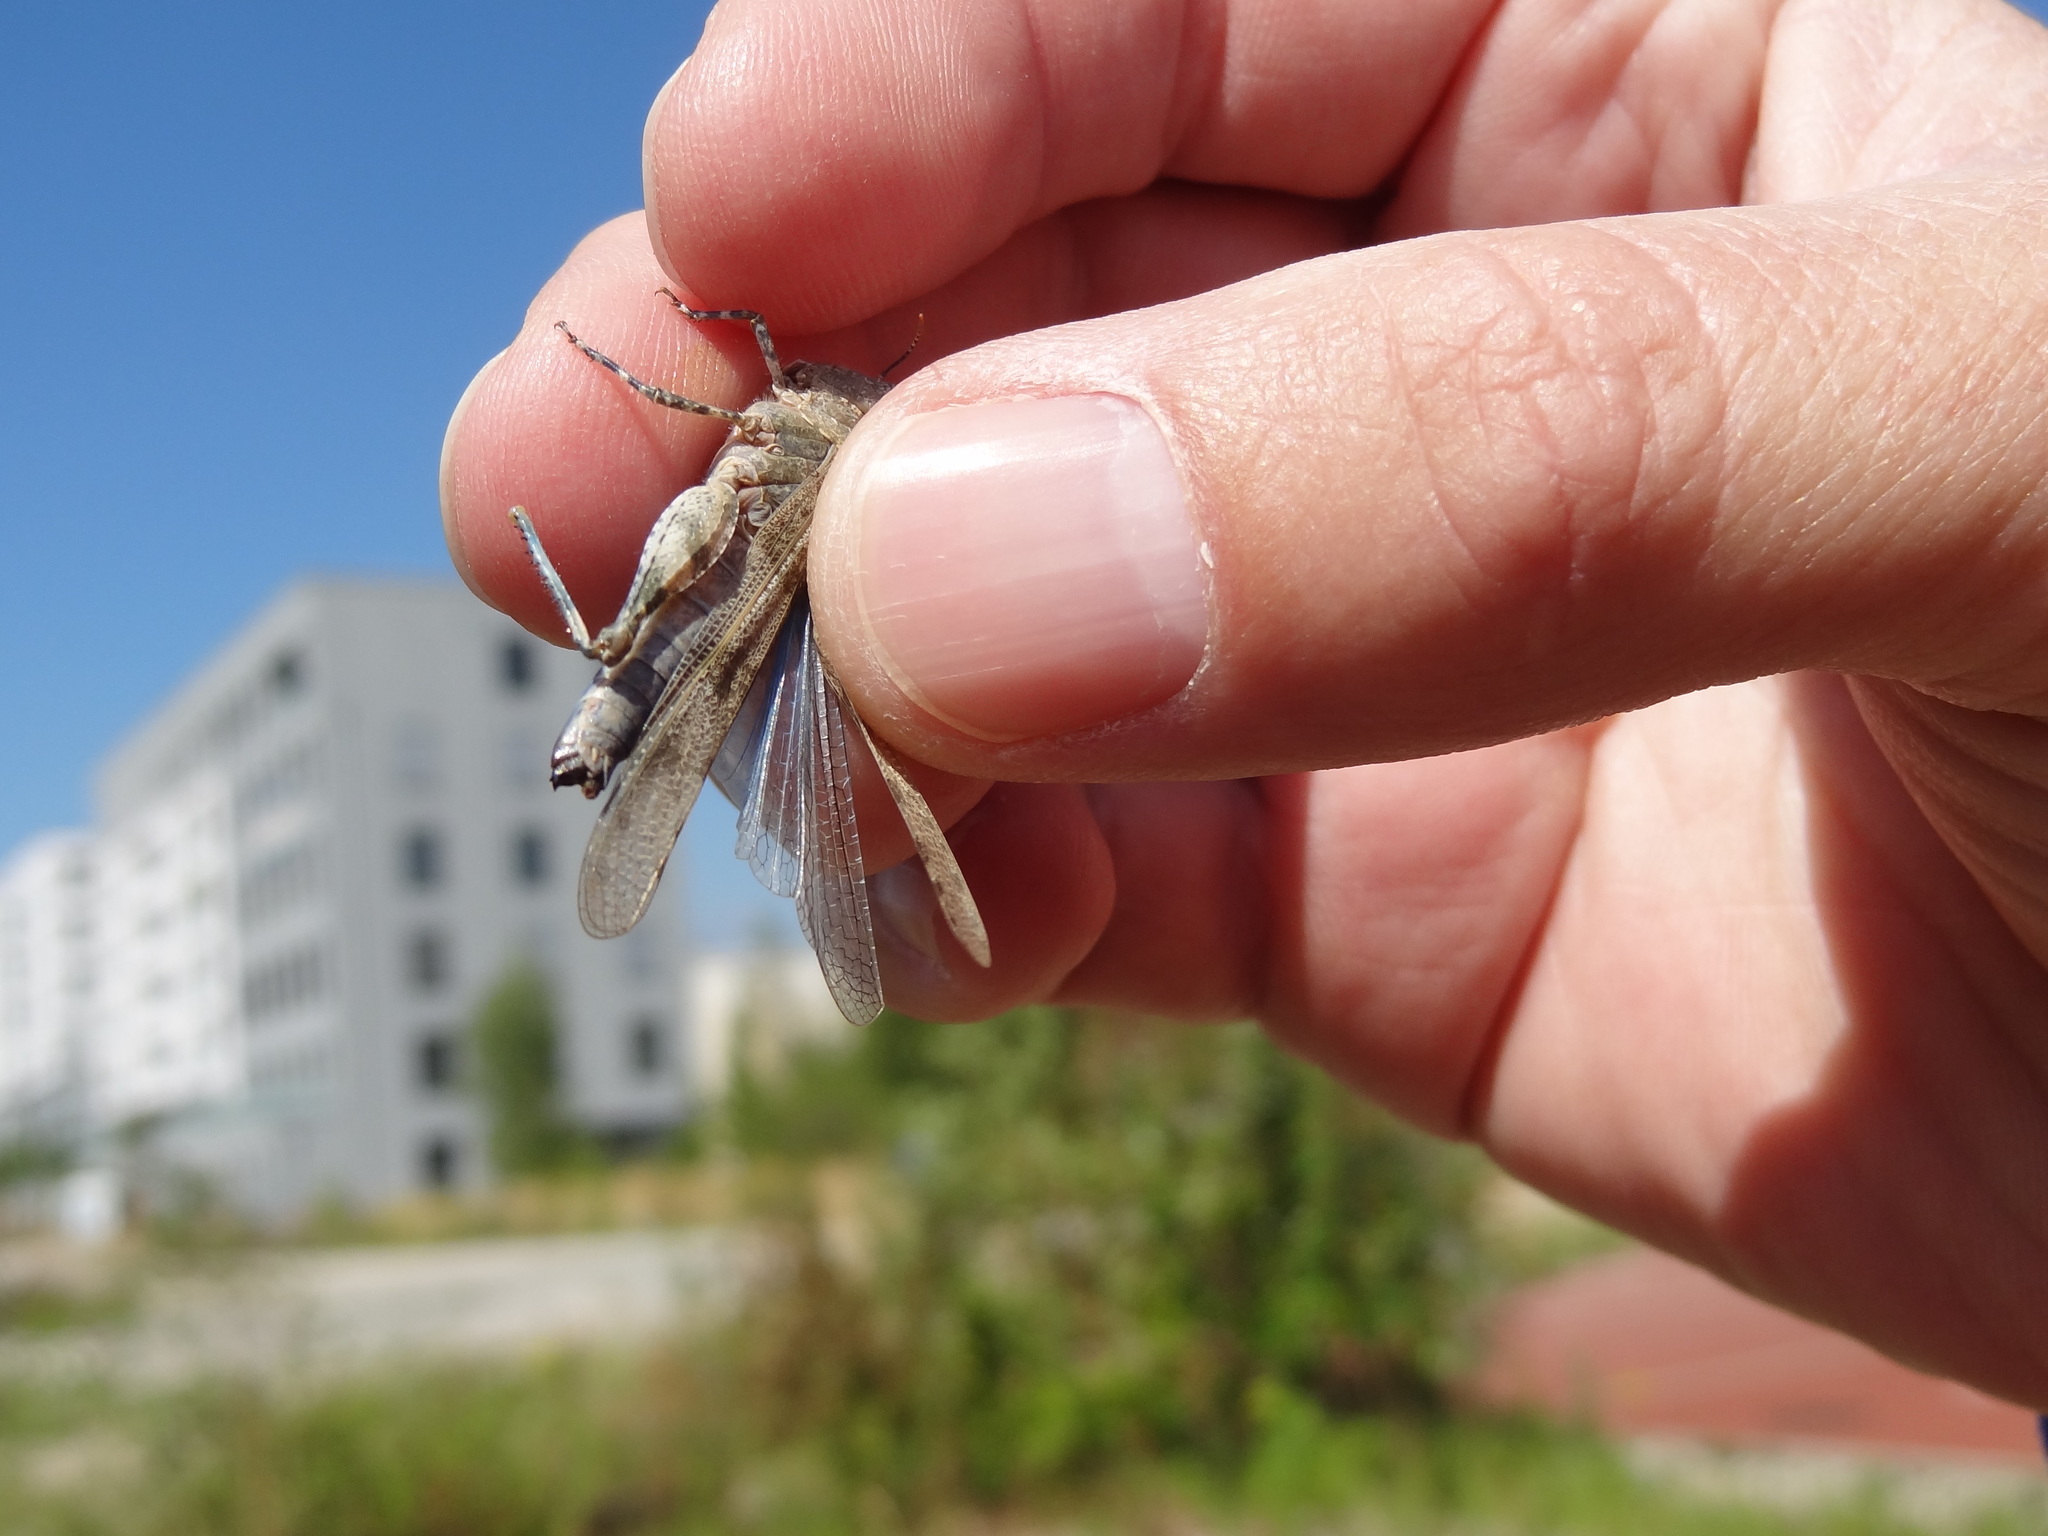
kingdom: Animalia
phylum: Arthropoda
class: Insecta
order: Orthoptera
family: Acrididae
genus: Sphingonotus
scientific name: Sphingonotus caerulans
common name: Blue-winged locust
